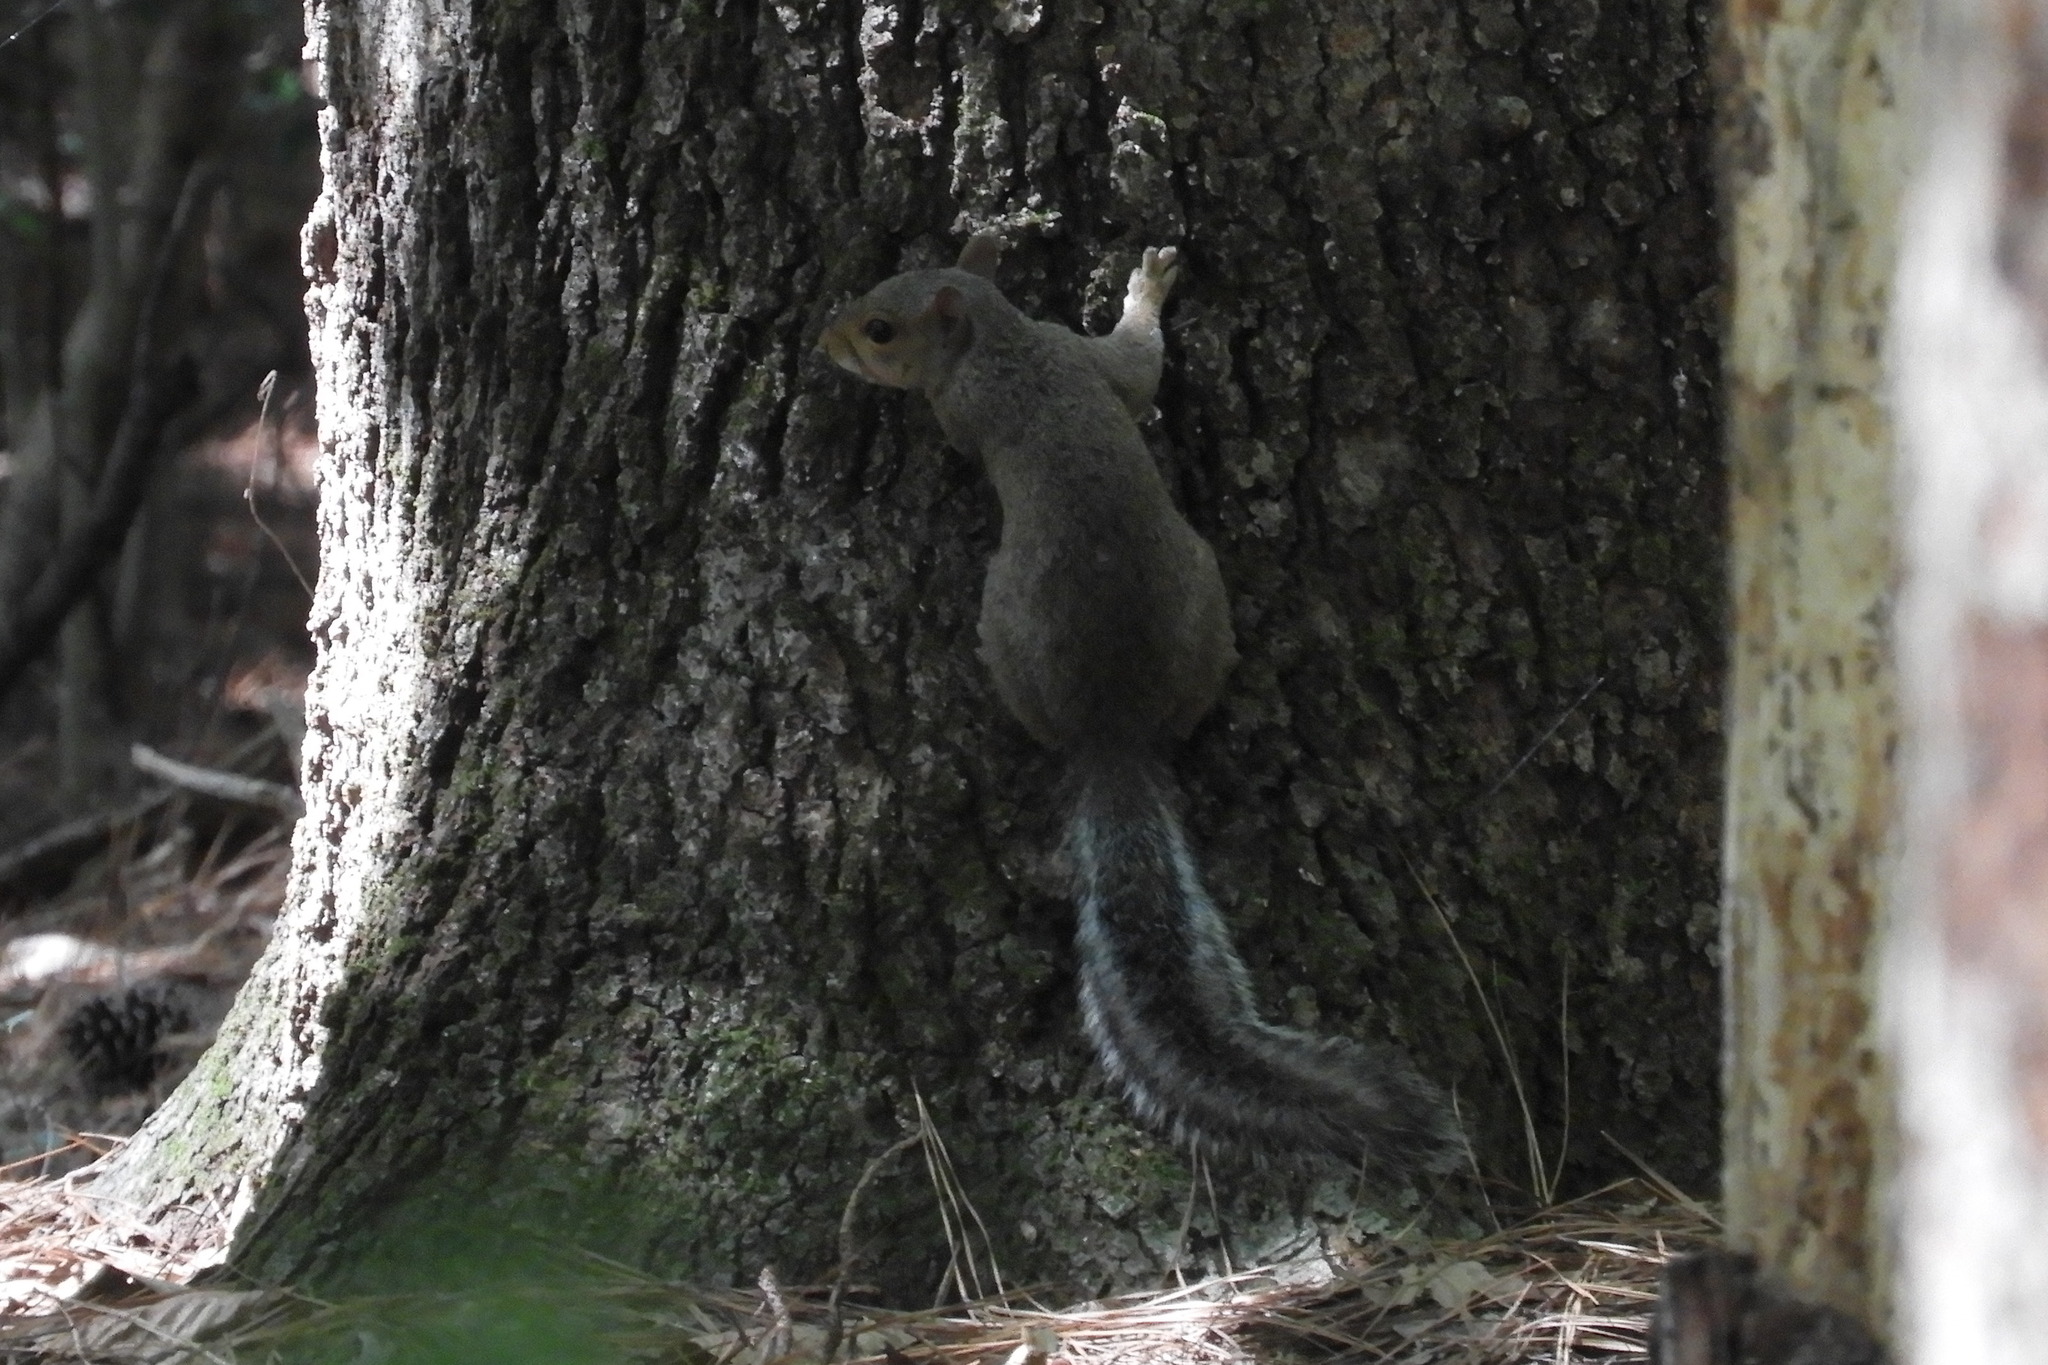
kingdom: Animalia
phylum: Chordata
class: Mammalia
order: Rodentia
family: Sciuridae
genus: Sciurus
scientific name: Sciurus carolinensis
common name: Eastern gray squirrel
